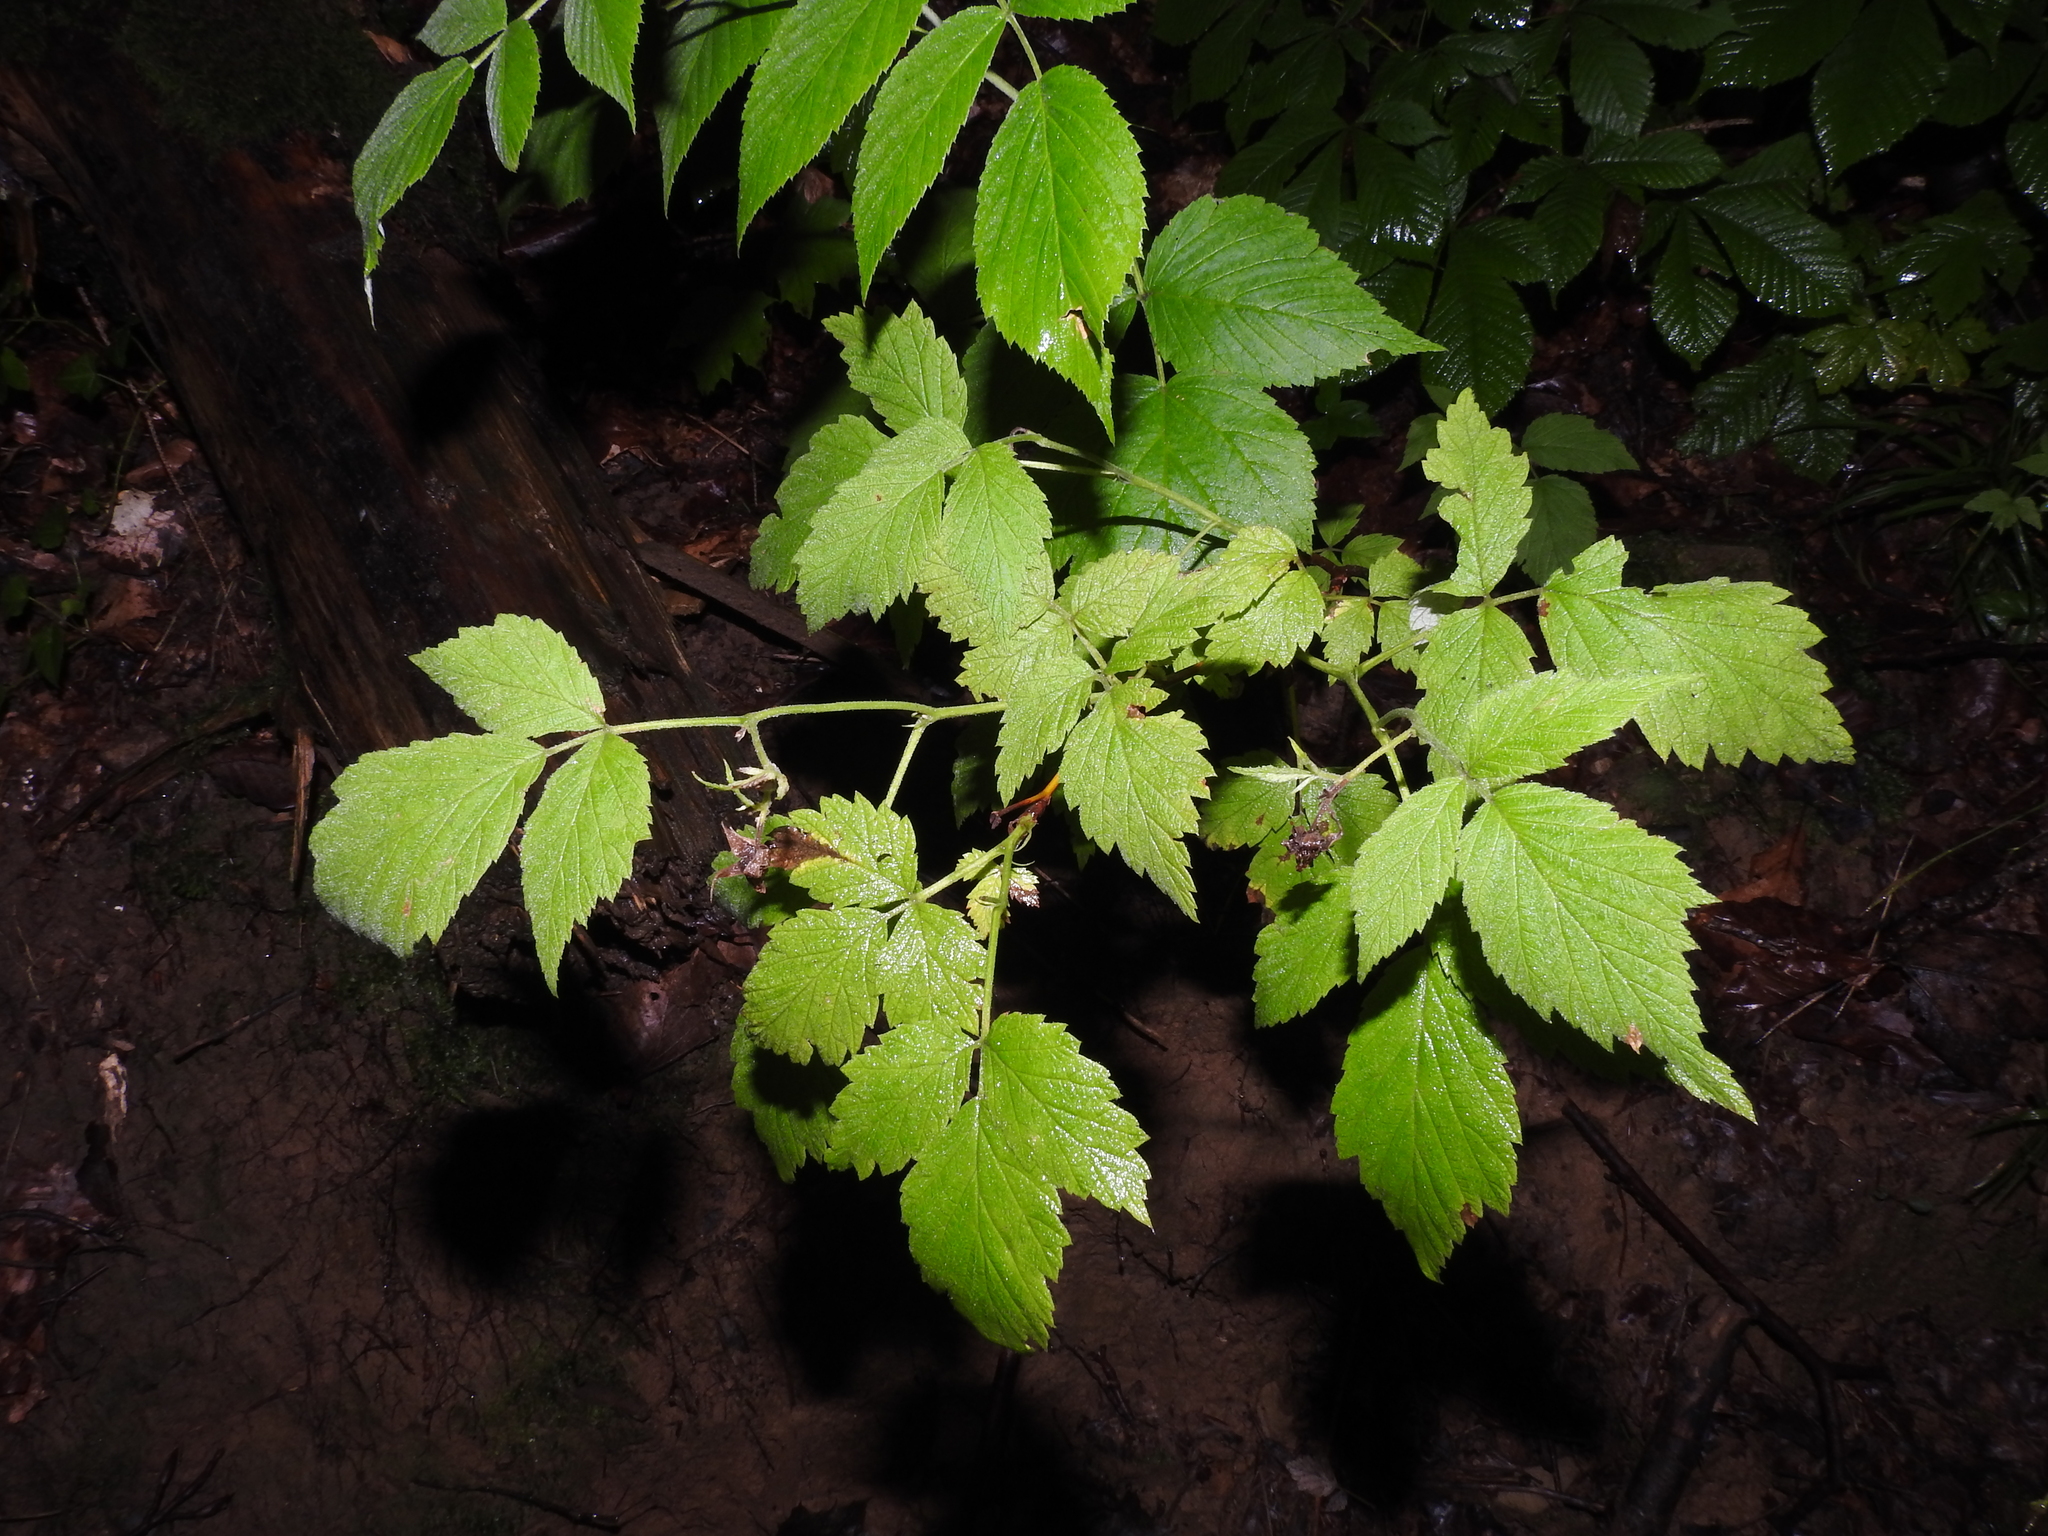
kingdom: Plantae
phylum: Tracheophyta
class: Magnoliopsida
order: Rosales
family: Rosaceae
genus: Rubus
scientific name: Rubus idaeus
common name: Raspberry
